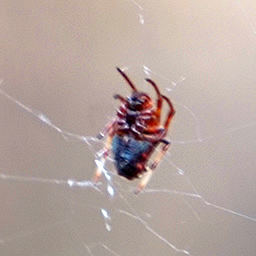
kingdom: Animalia
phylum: Arthropoda
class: Arachnida
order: Araneae
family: Araneidae
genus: Verrucosa
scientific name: Verrucosa arenata
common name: Orb weavers
